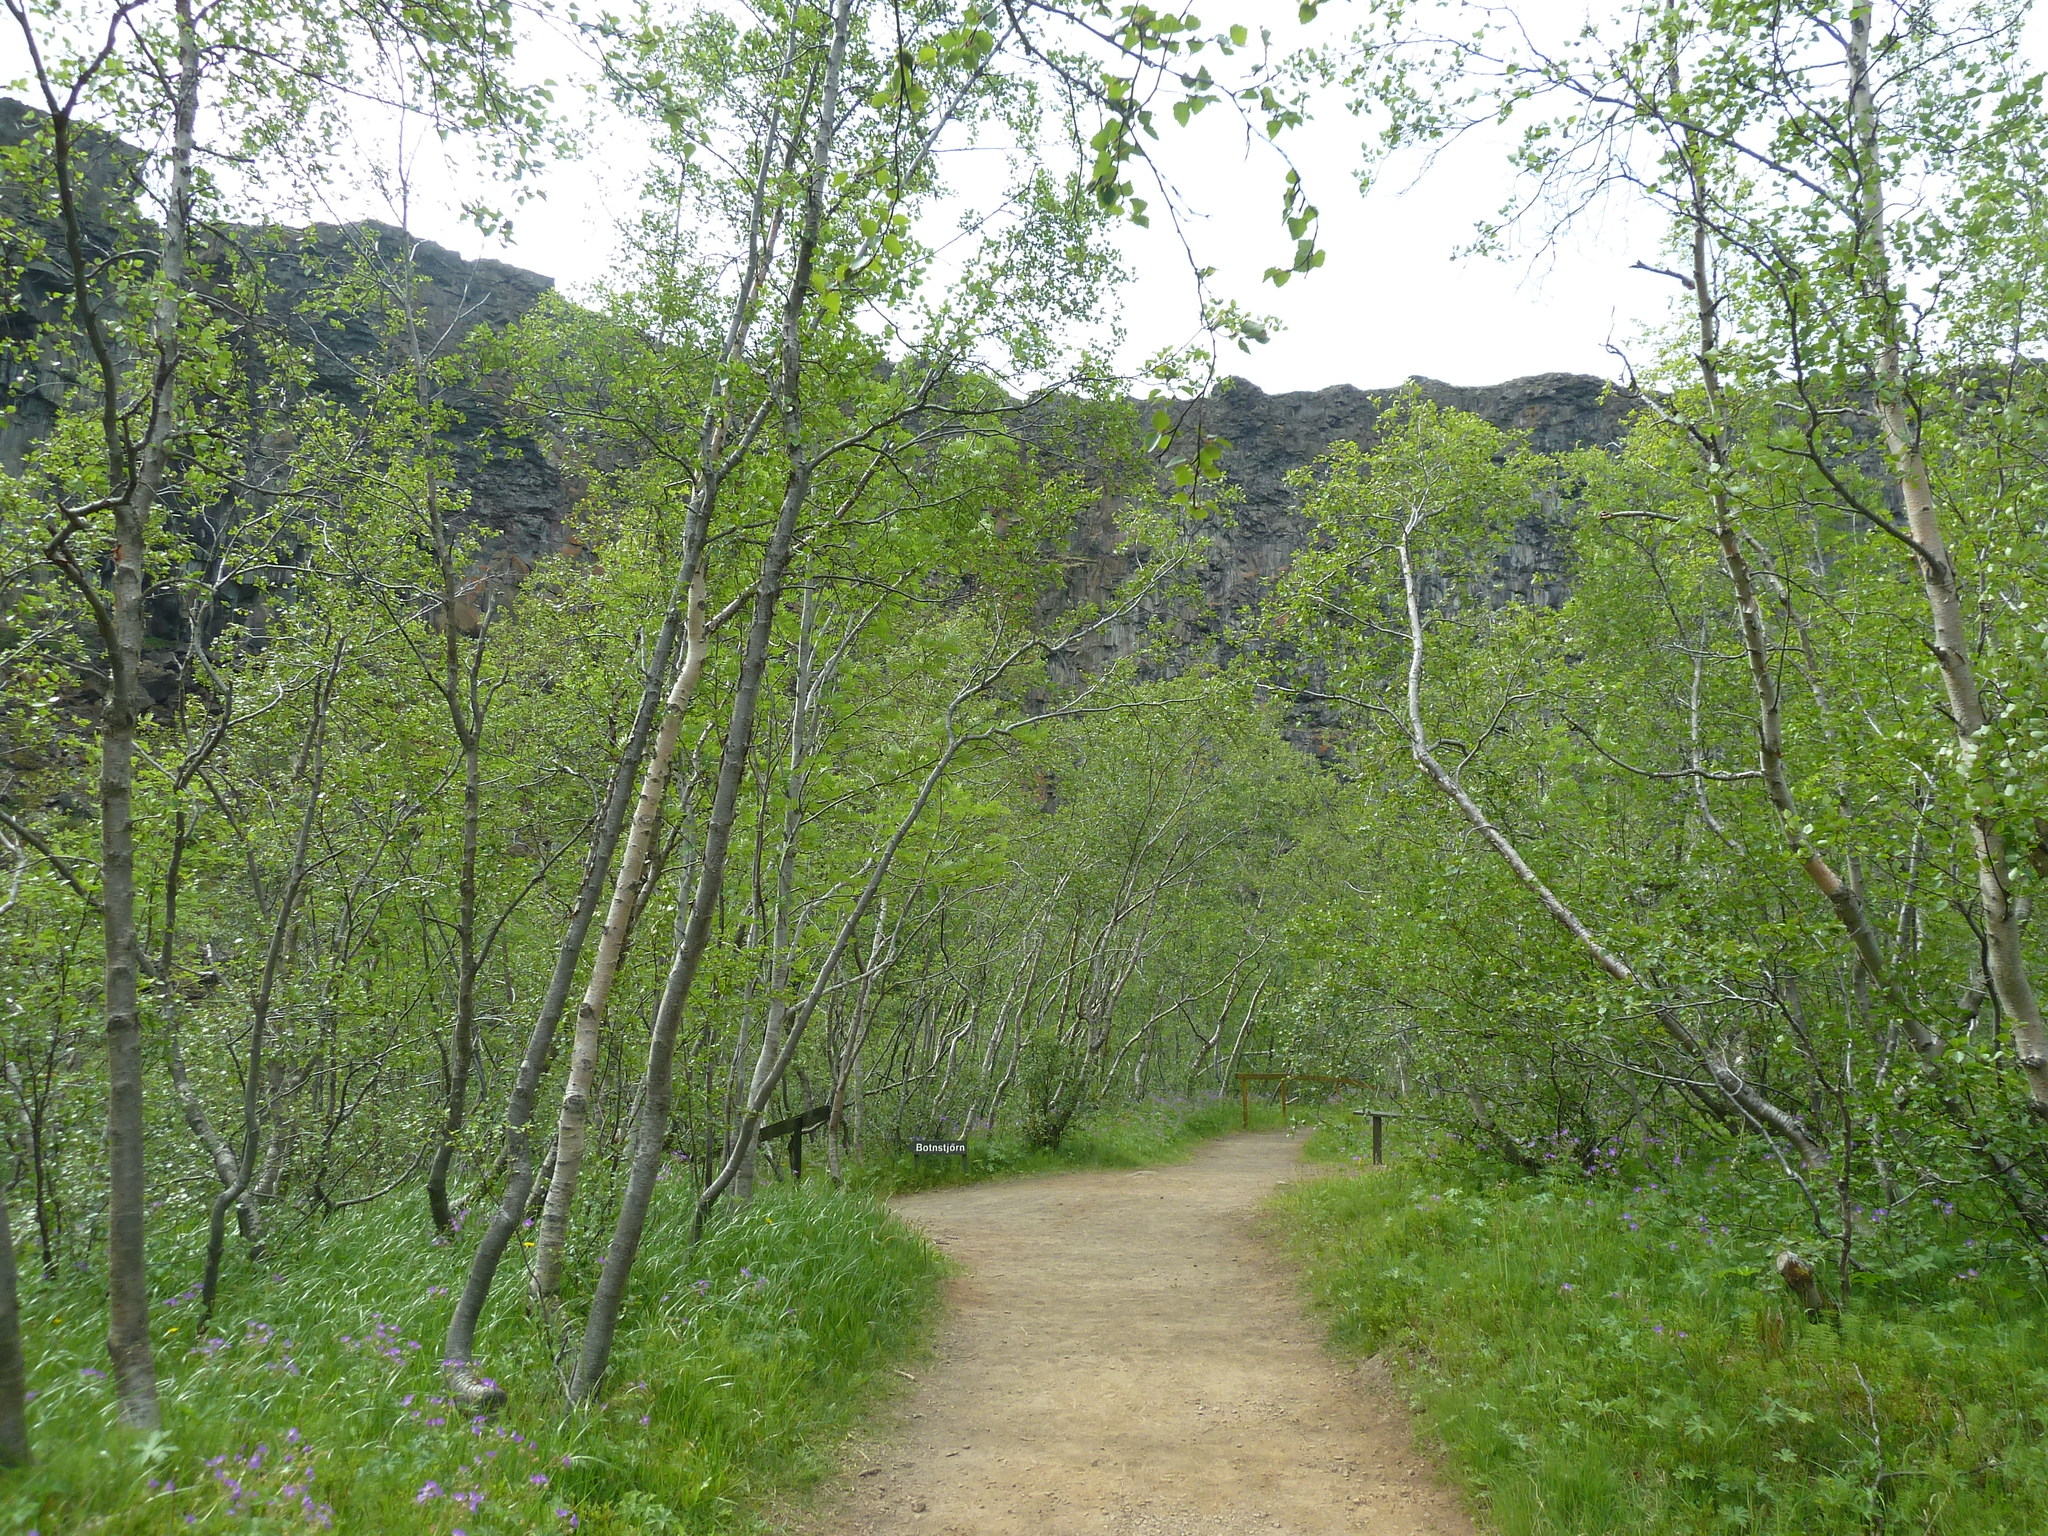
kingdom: Plantae
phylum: Tracheophyta
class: Magnoliopsida
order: Fagales
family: Betulaceae
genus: Betula
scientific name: Betula pubescens
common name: Downy birch
